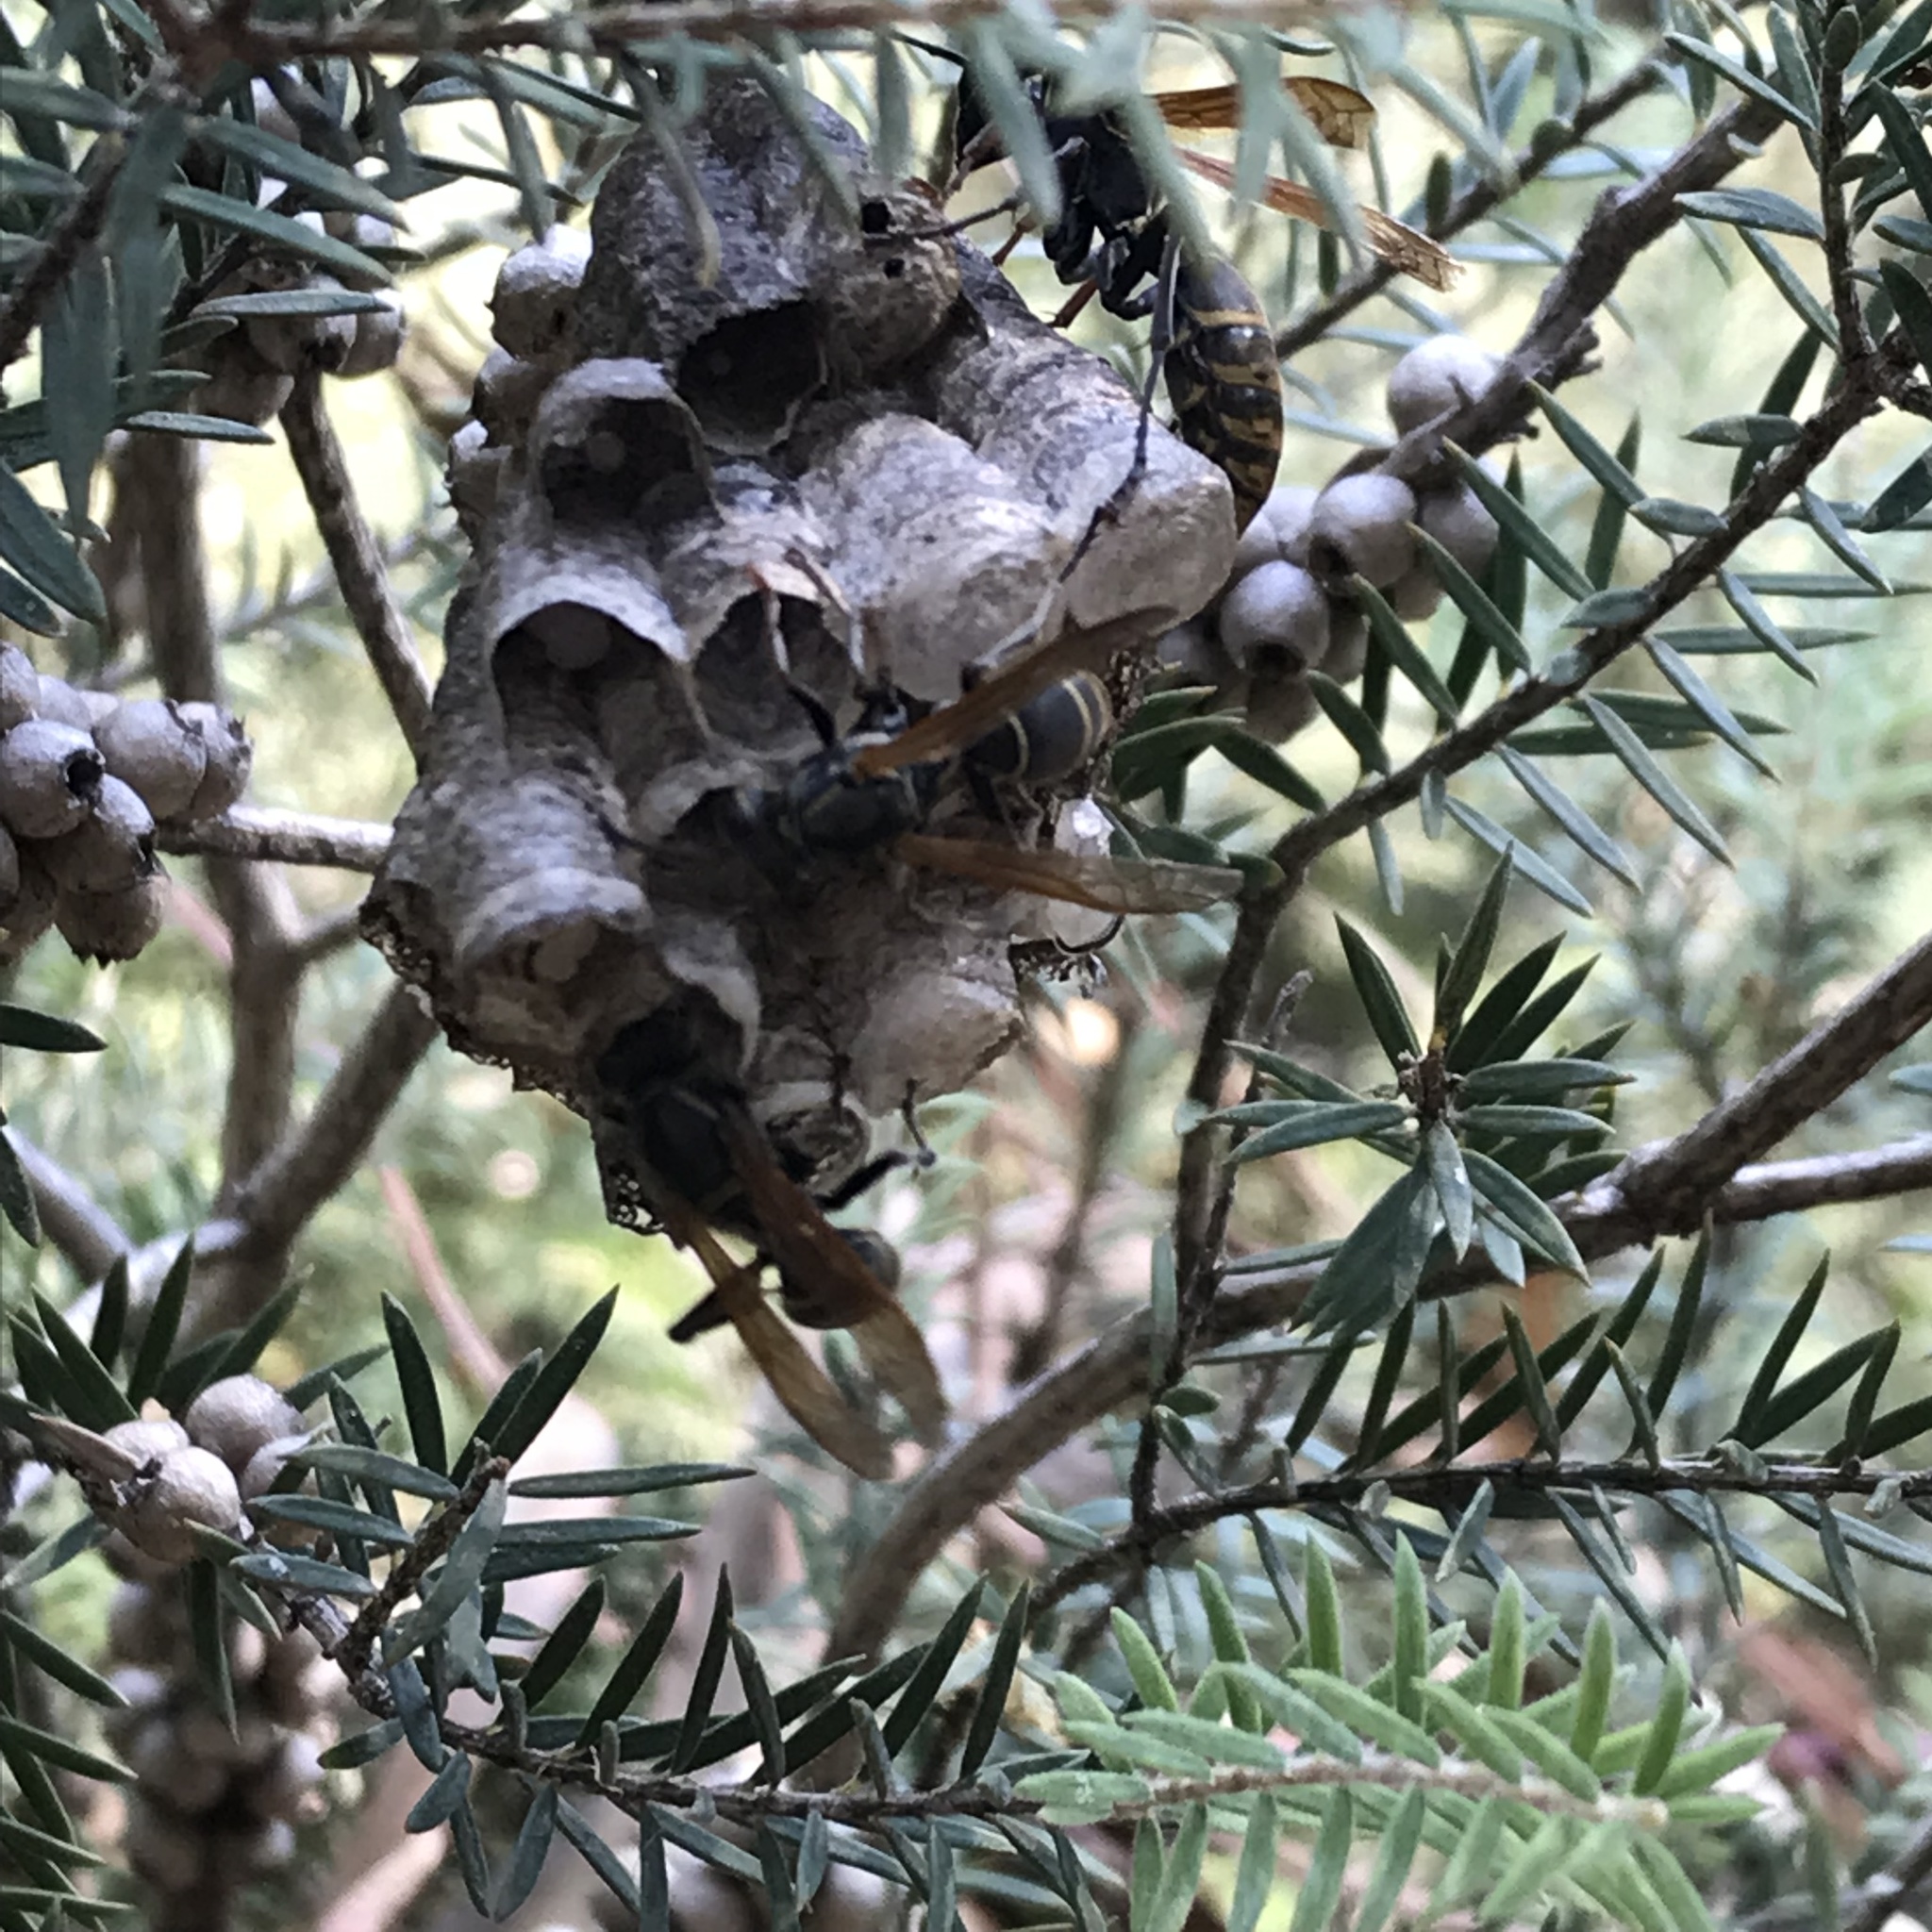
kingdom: Animalia
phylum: Arthropoda
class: Insecta
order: Hymenoptera
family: Eumenidae
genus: Polistes
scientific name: Polistes cinerascens
